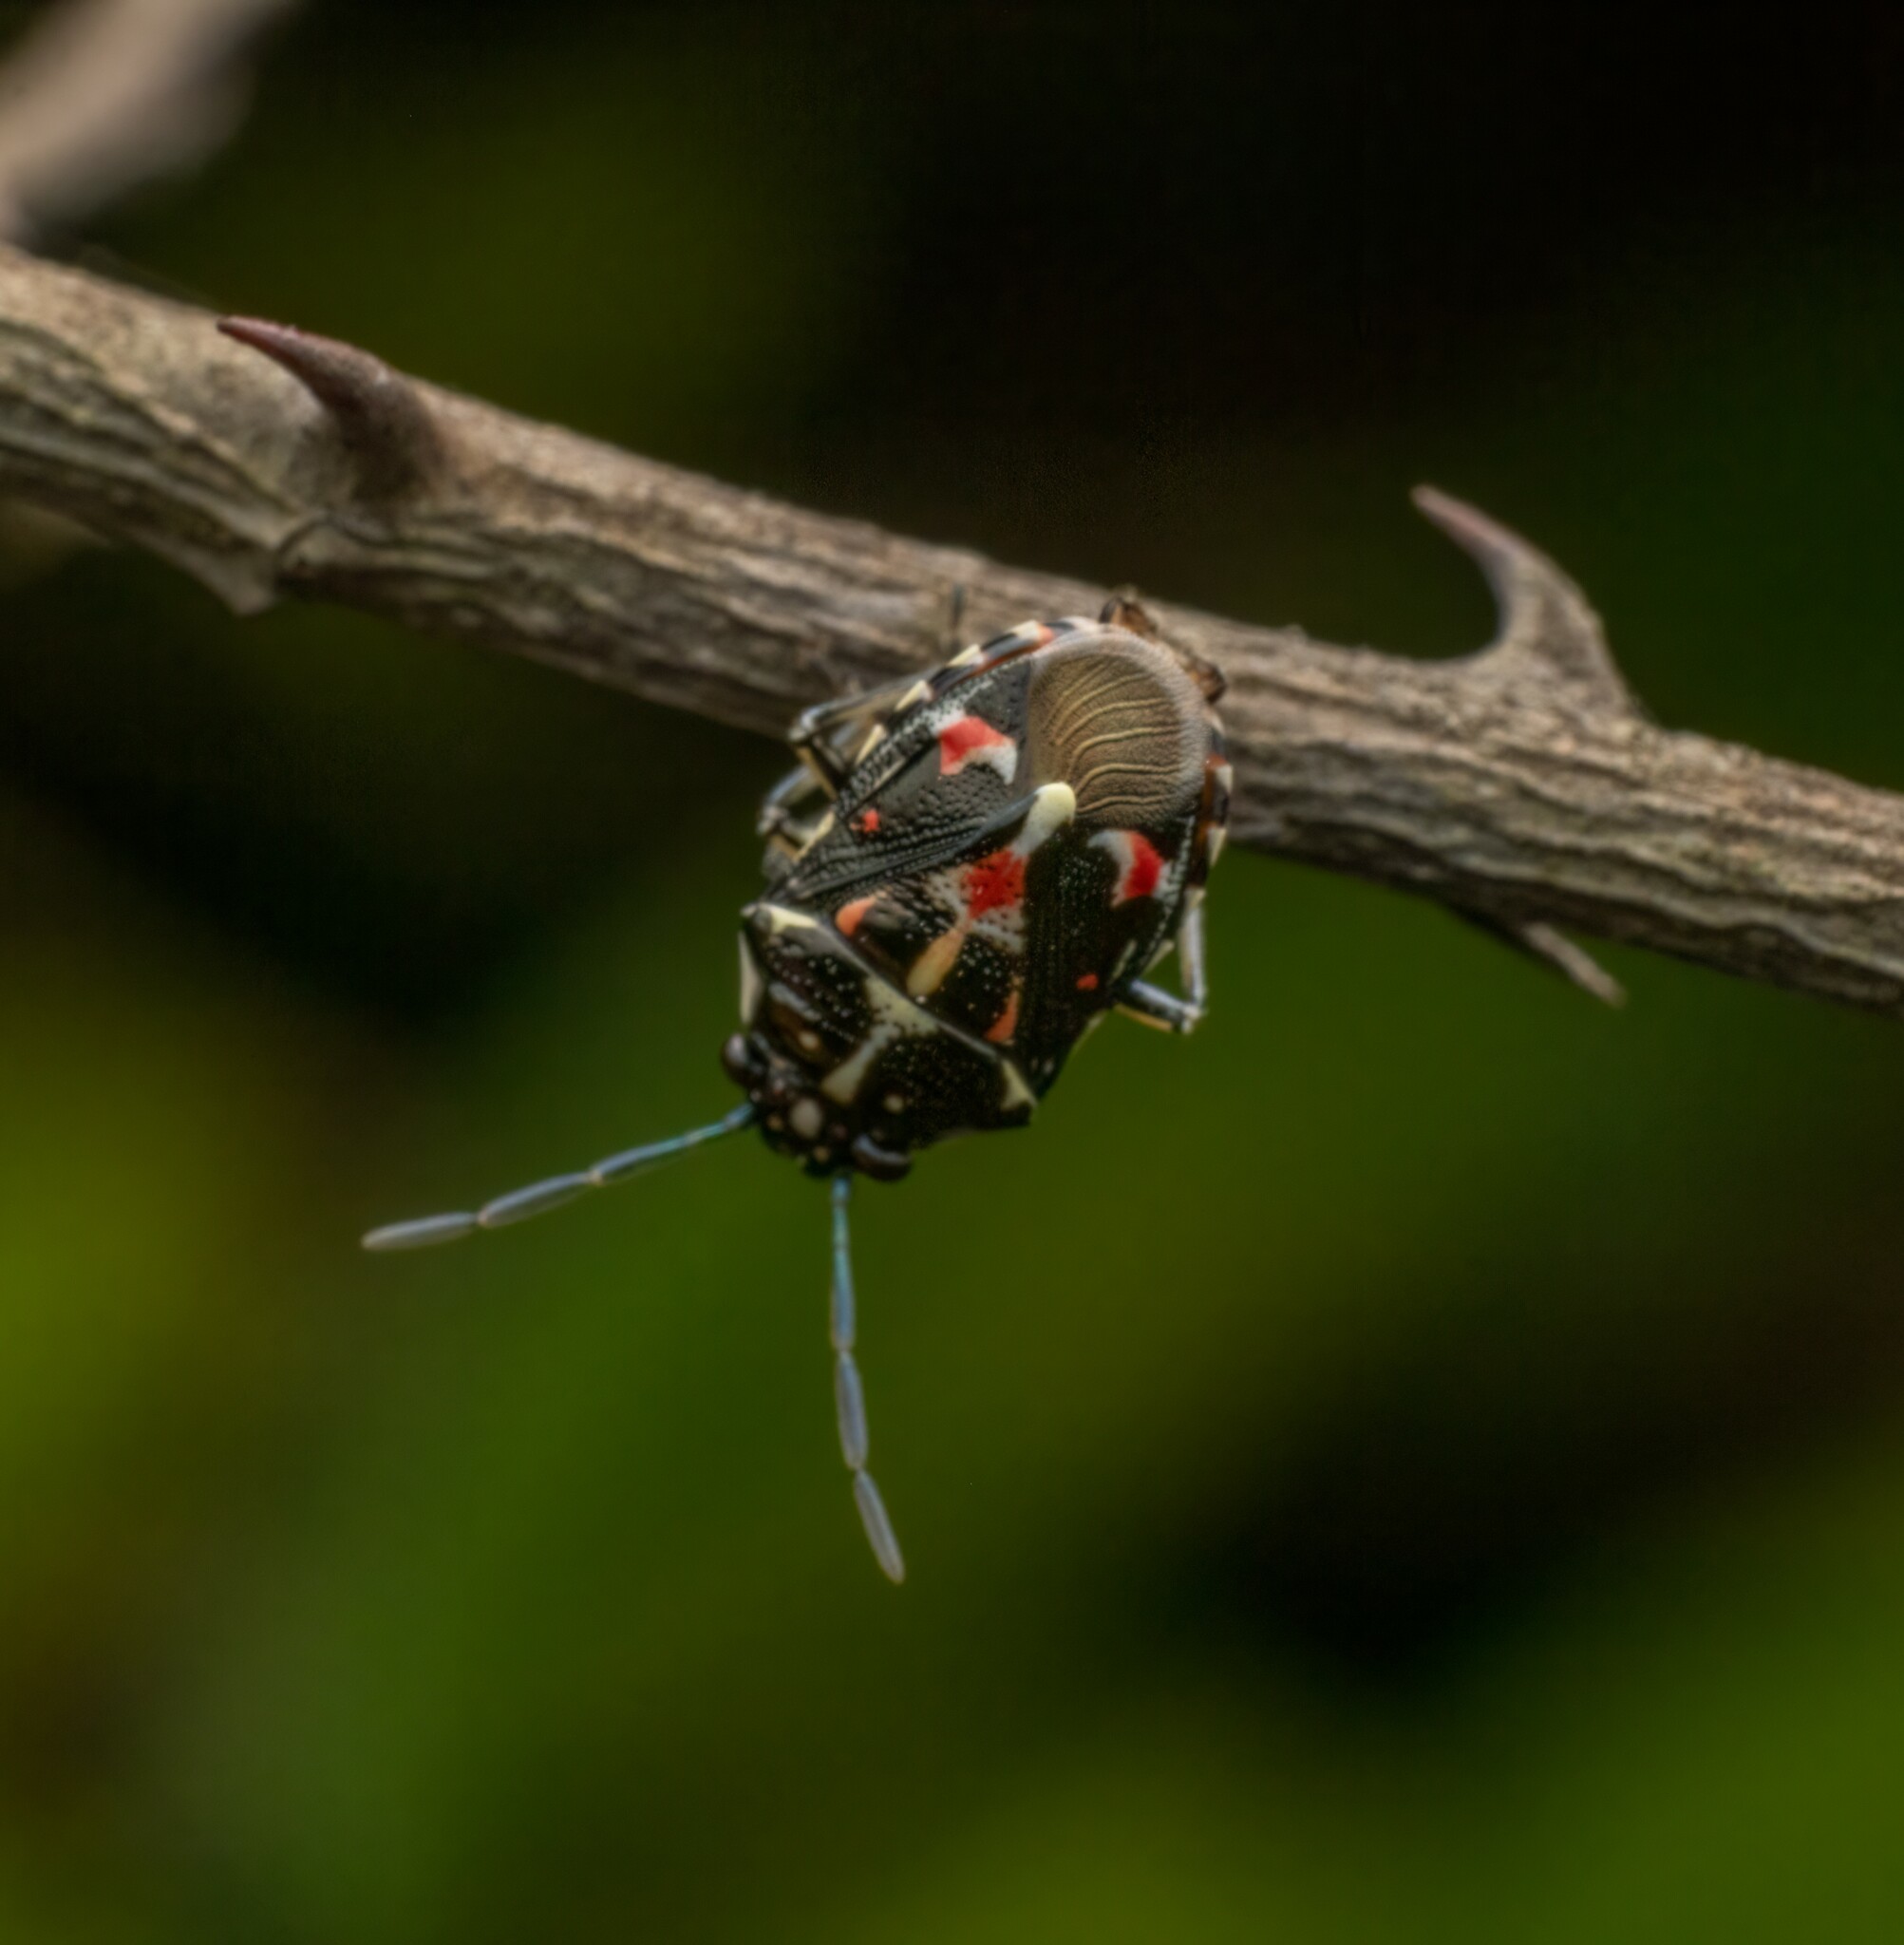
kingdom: Animalia
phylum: Arthropoda
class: Insecta
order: Hemiptera
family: Pentatomidae
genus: Stenozygum
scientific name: Stenozygum speciosum
